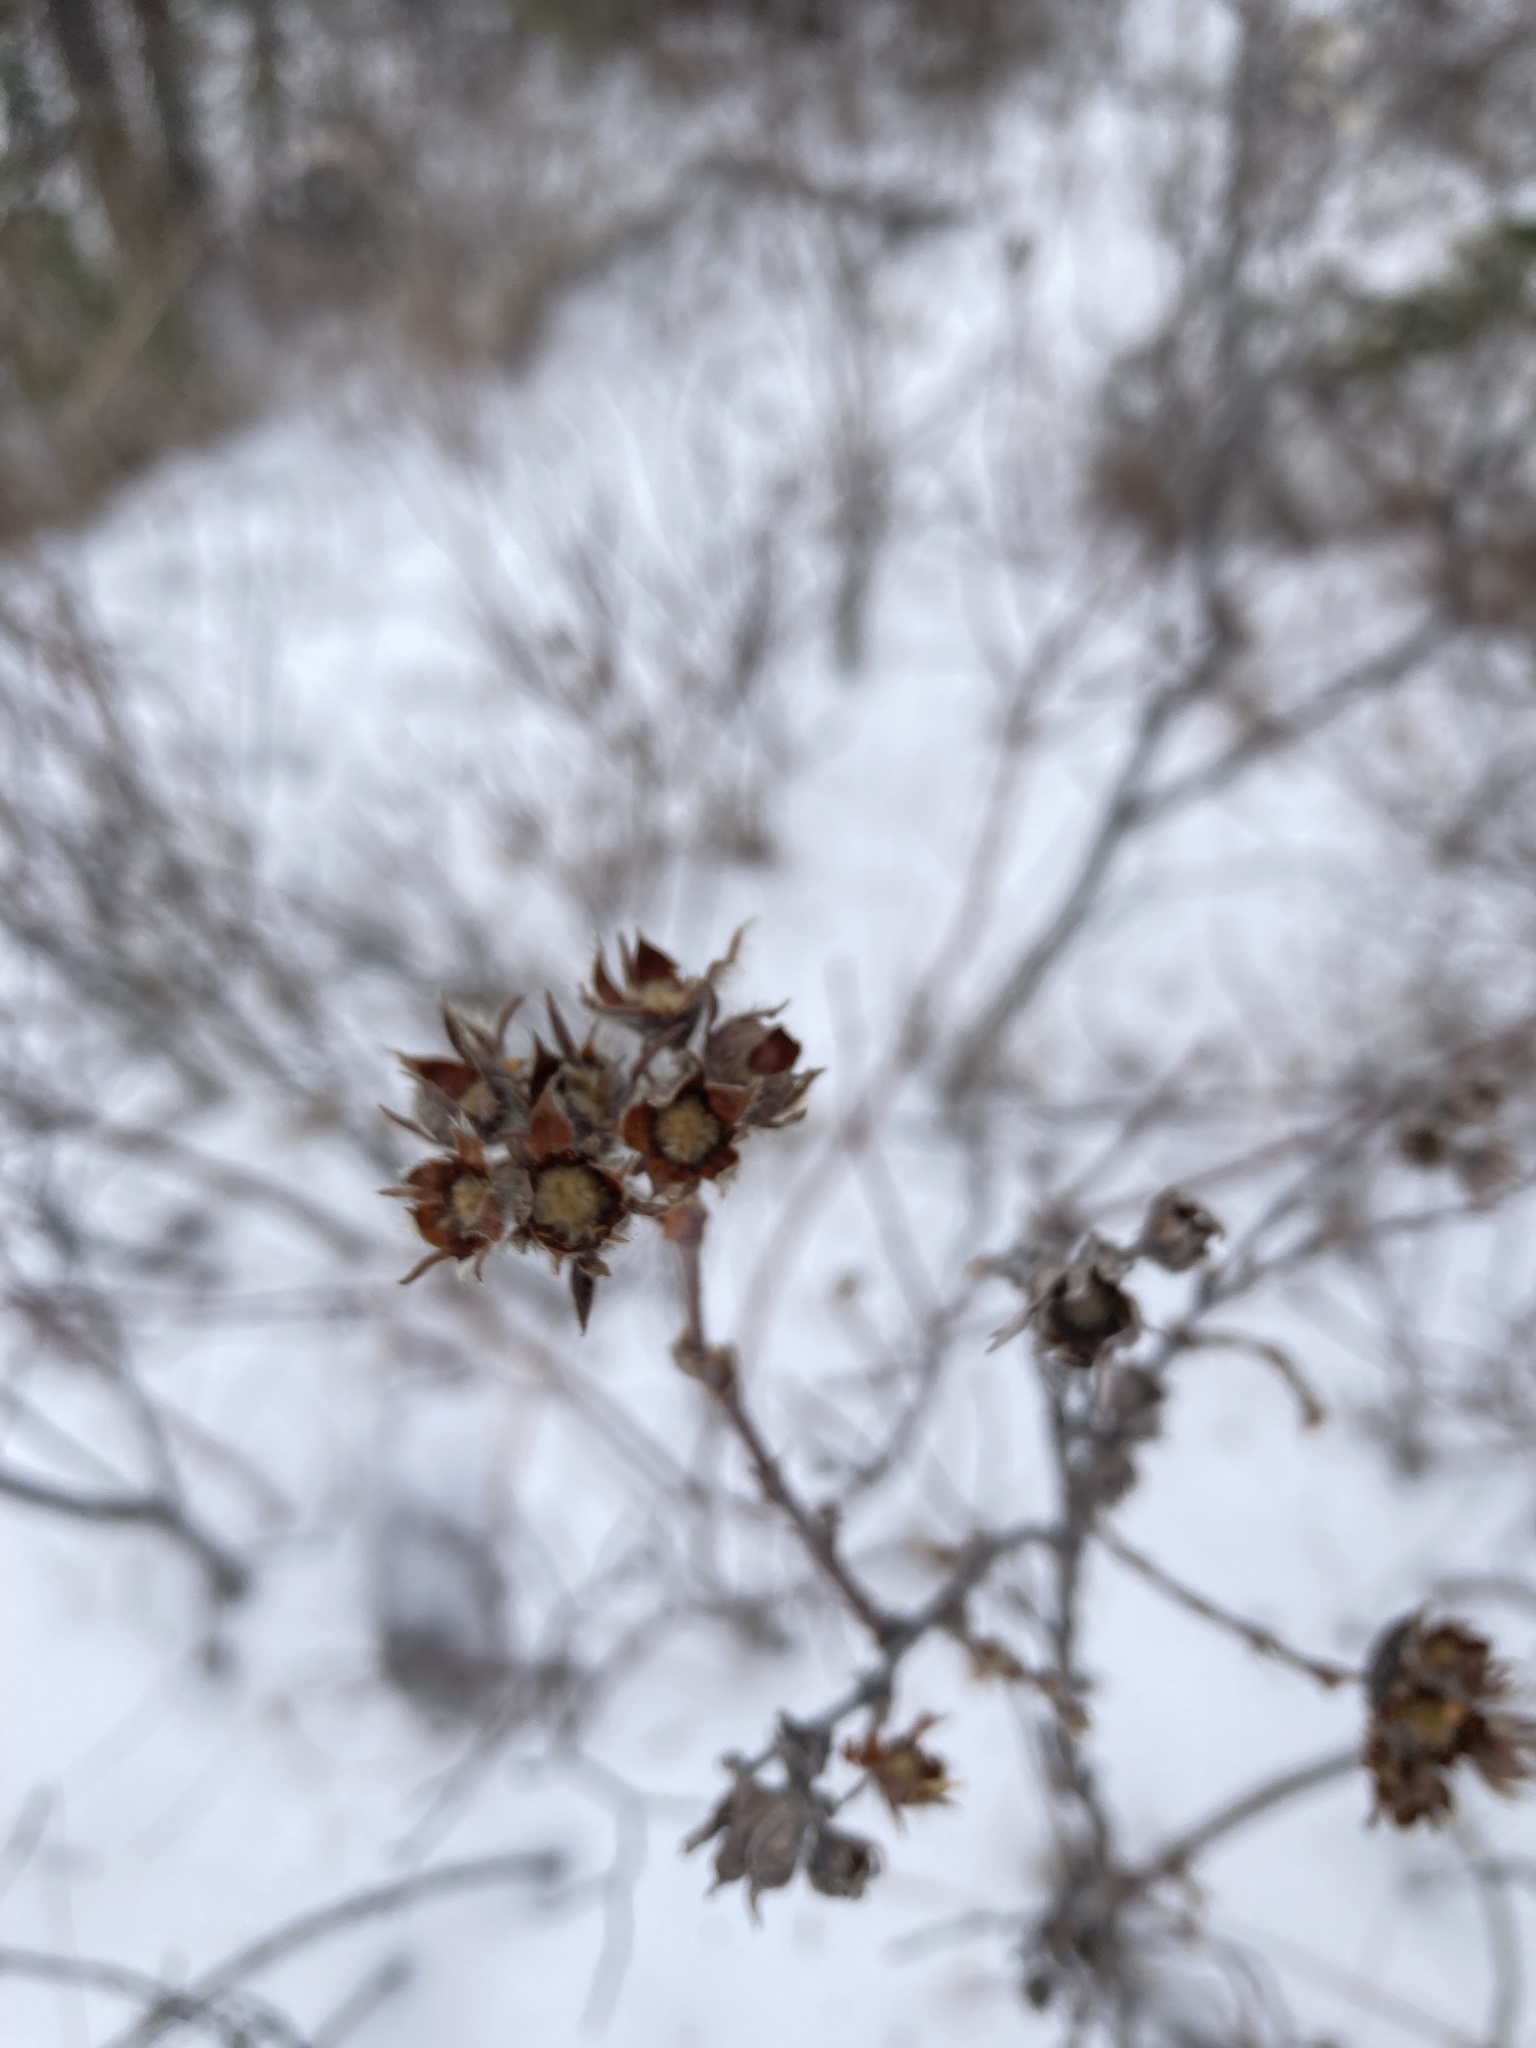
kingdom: Plantae
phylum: Tracheophyta
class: Magnoliopsida
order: Rosales
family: Rosaceae
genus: Dasiphora
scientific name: Dasiphora fruticosa
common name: Shrubby cinquefoil
